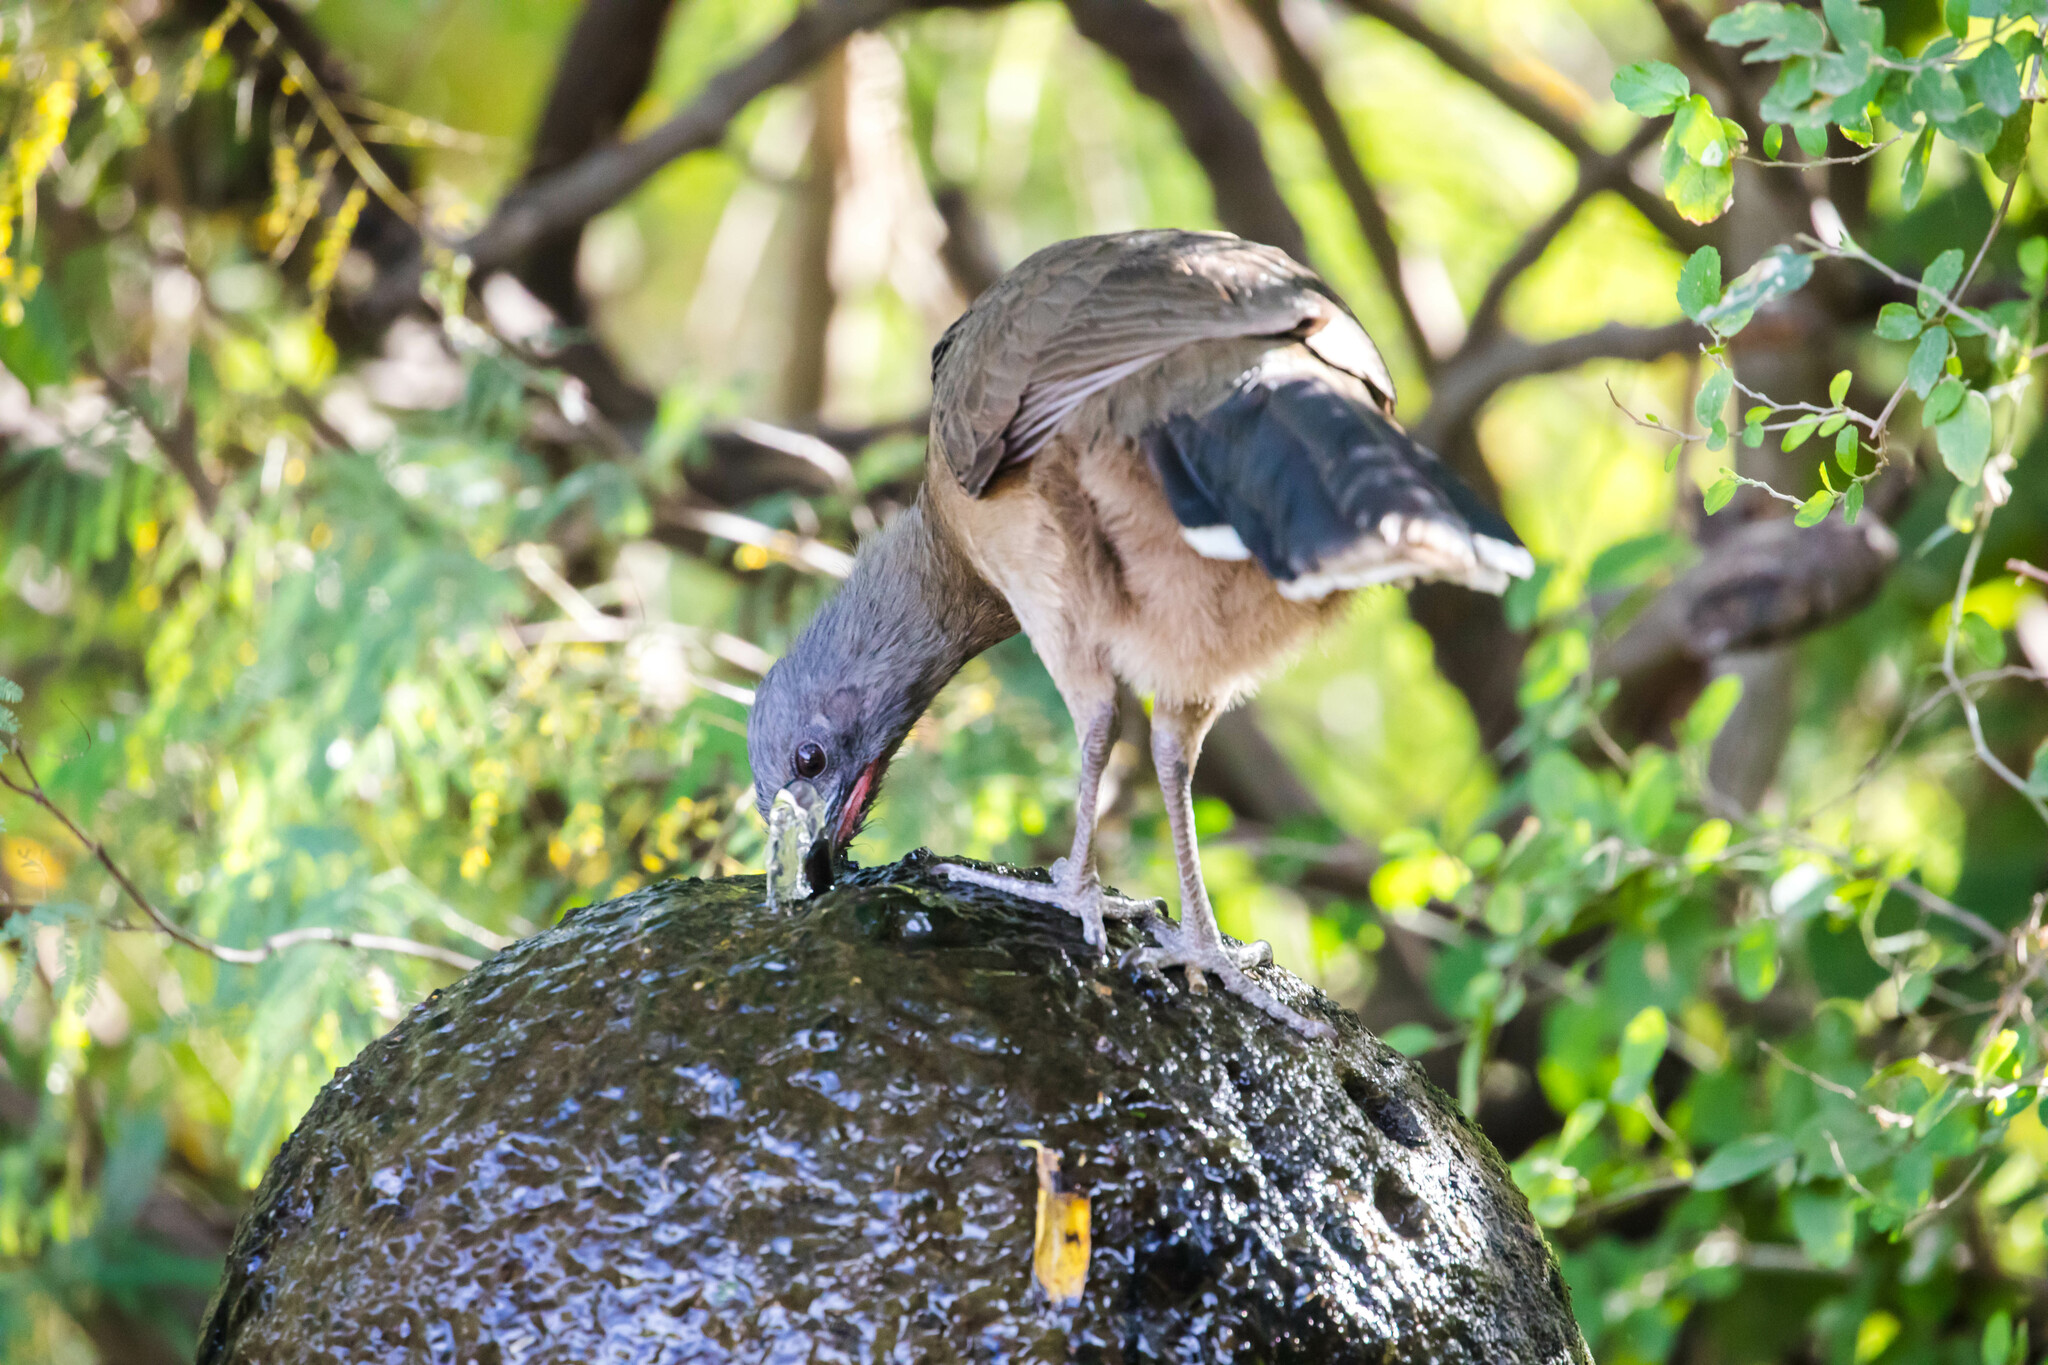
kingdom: Animalia
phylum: Chordata
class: Aves
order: Galliformes
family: Cracidae
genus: Ortalis
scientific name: Ortalis vetula
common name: Plain chachalaca
